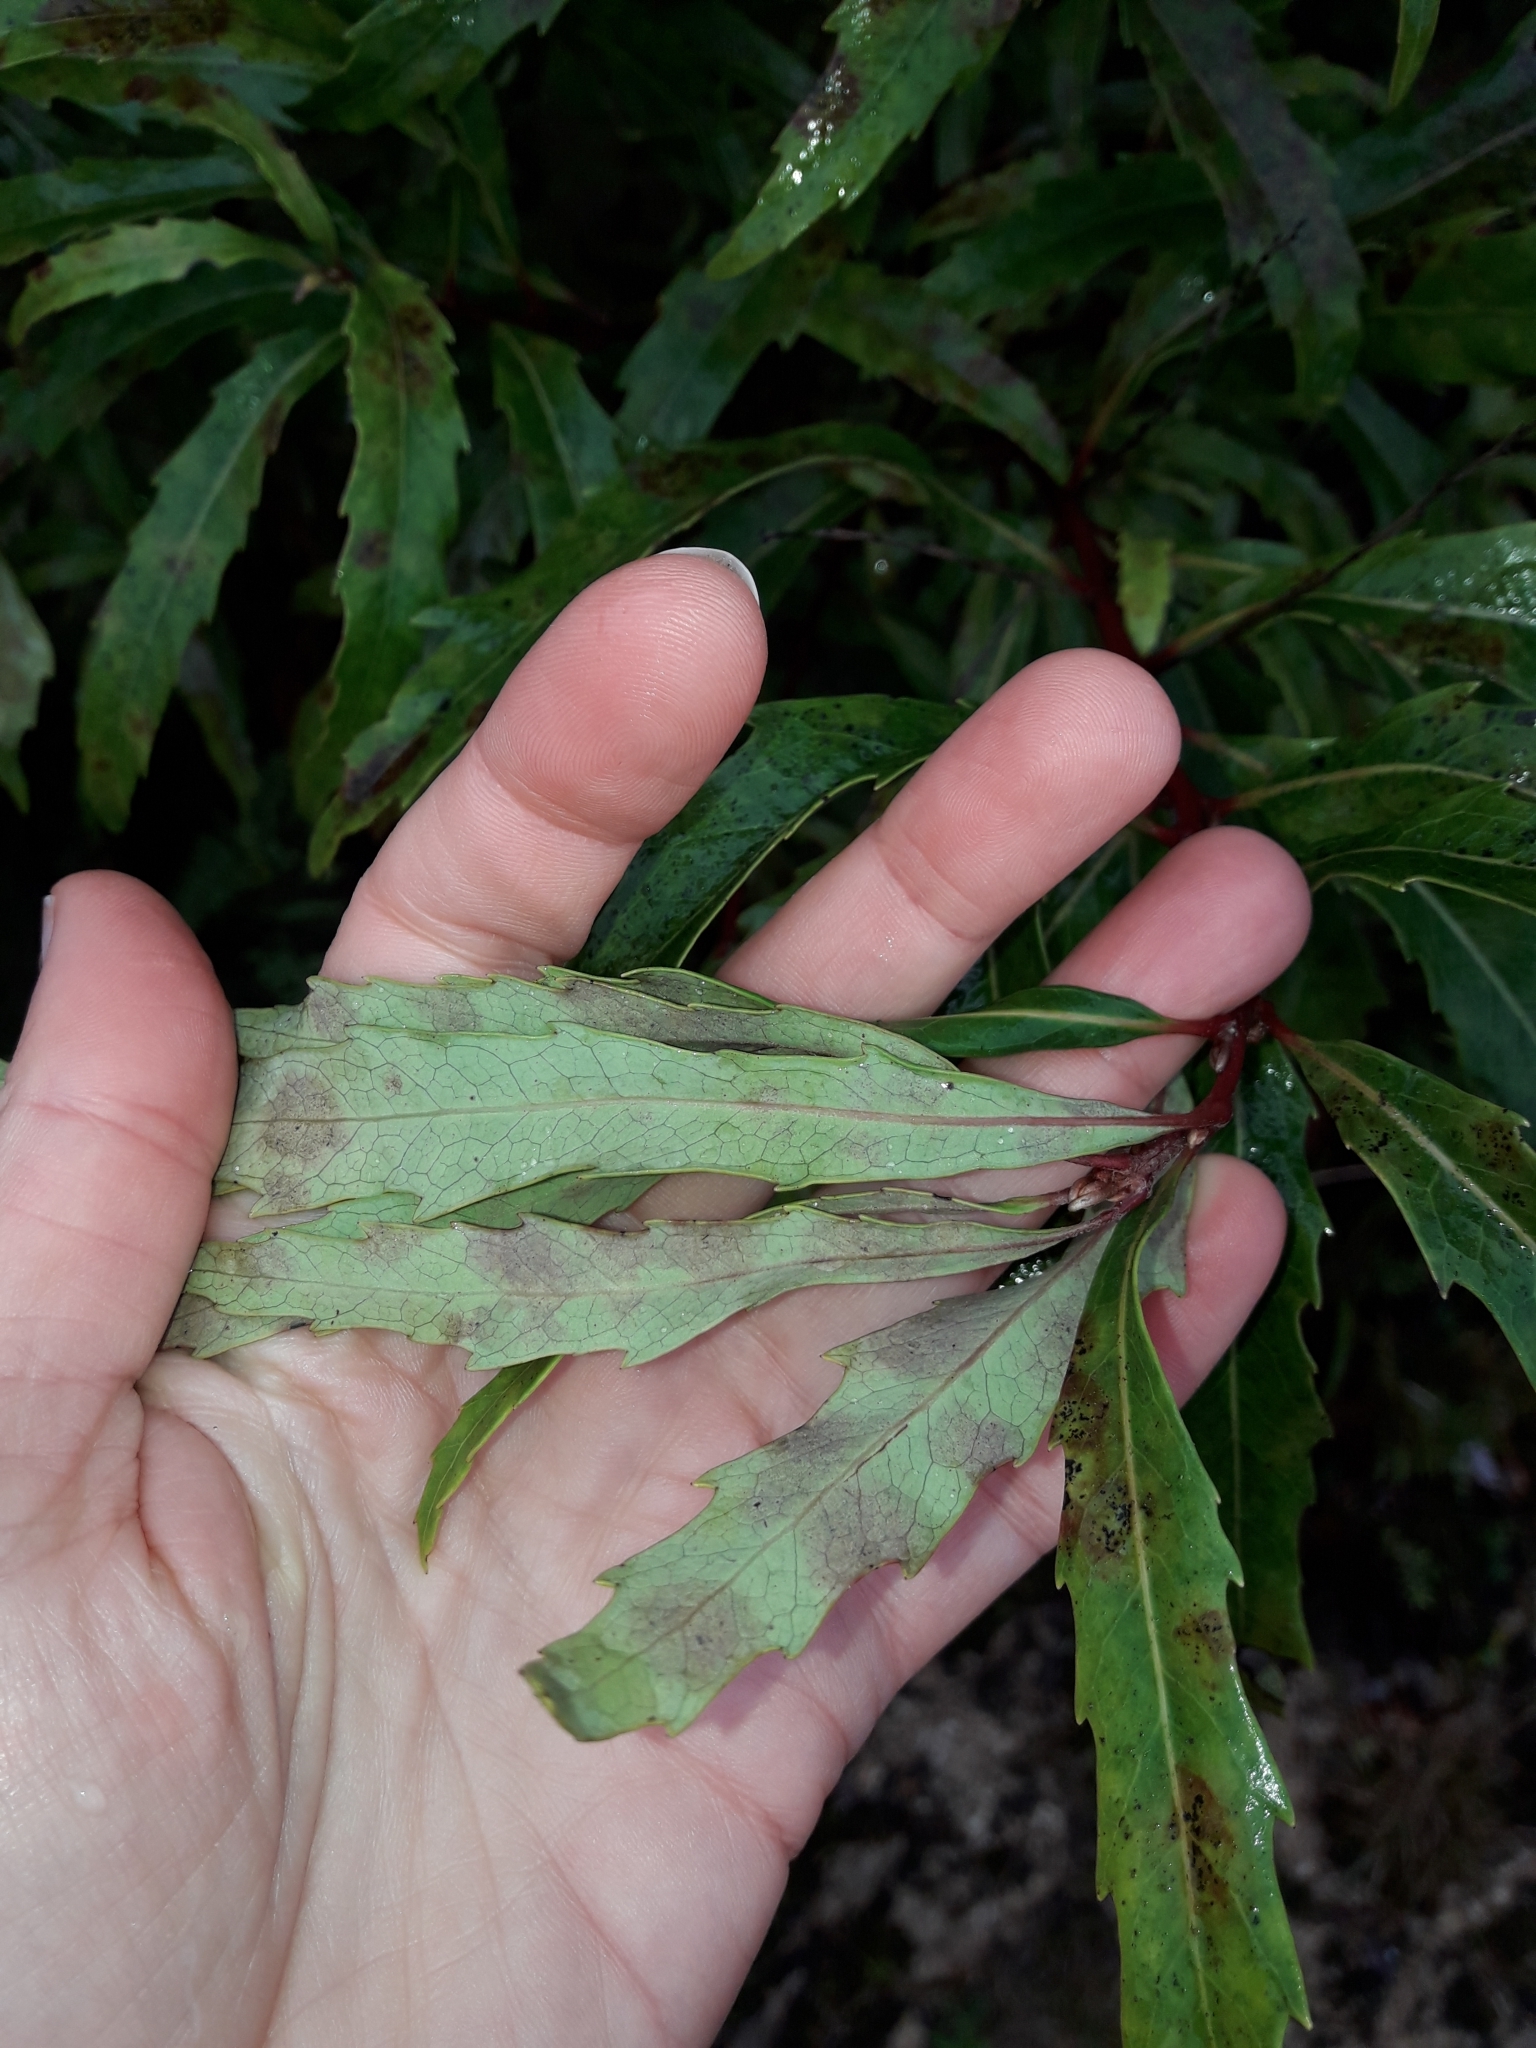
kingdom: Plantae
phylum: Tracheophyta
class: Magnoliopsida
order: Proteales
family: Proteaceae
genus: Lomatia
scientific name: Lomatia fraseri
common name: Forest lomatia
